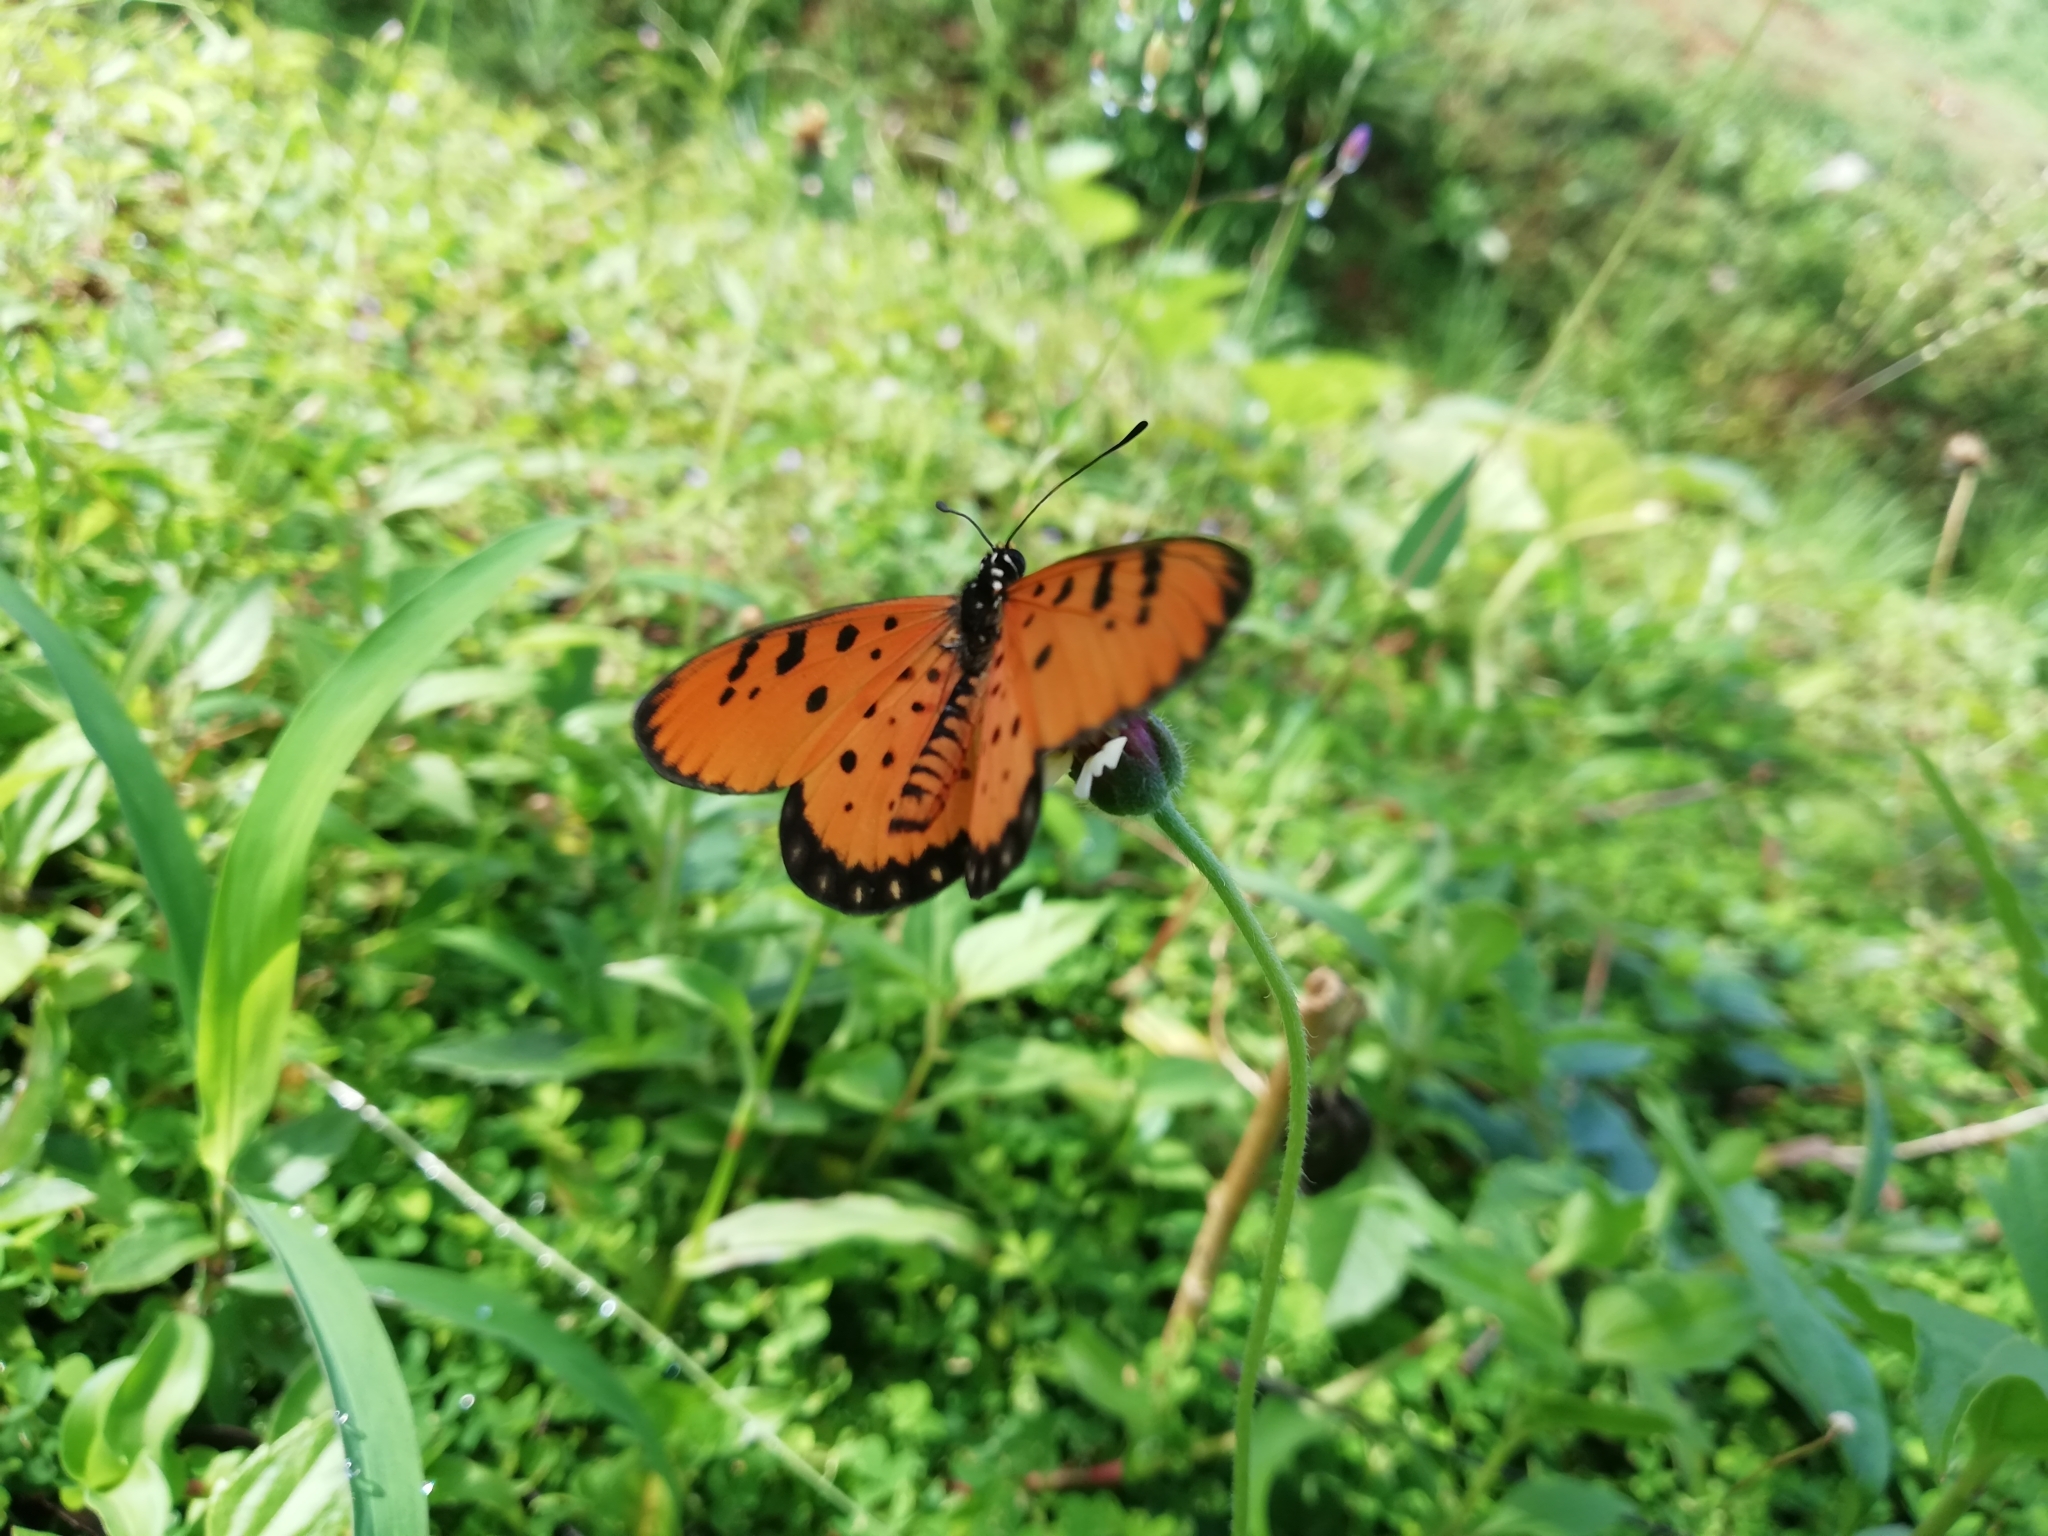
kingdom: Animalia
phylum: Arthropoda
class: Insecta
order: Lepidoptera
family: Nymphalidae
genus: Acraea
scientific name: Acraea terpsicore
